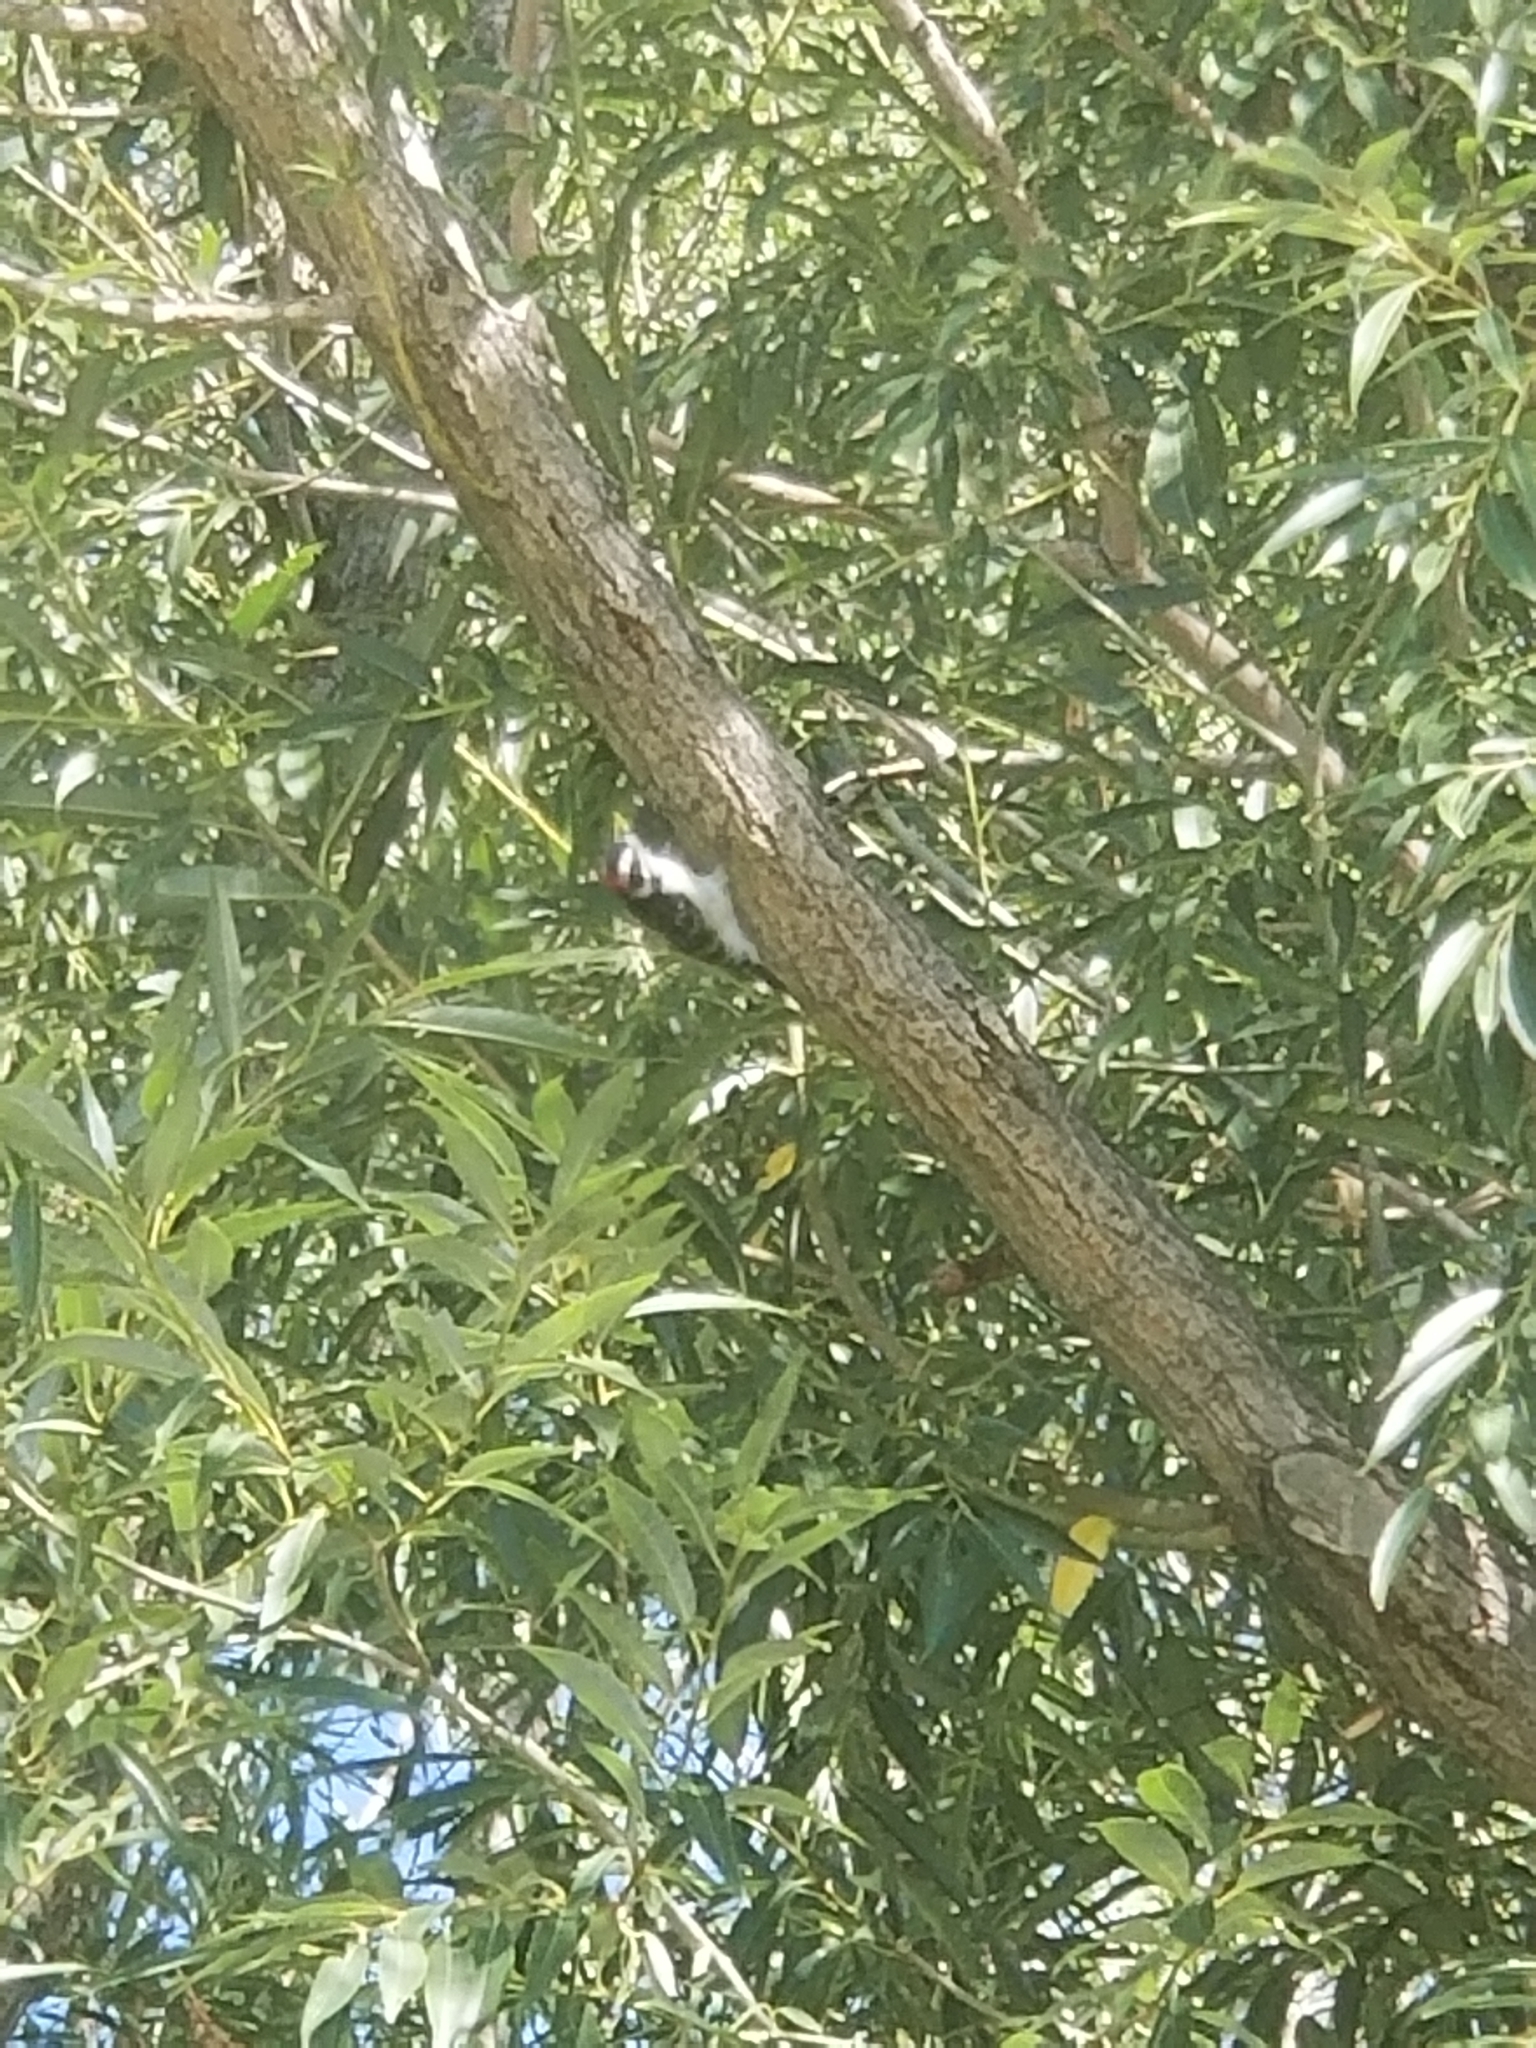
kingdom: Animalia
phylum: Chordata
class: Aves
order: Piciformes
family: Picidae
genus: Dryobates
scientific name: Dryobates pubescens
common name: Downy woodpecker
